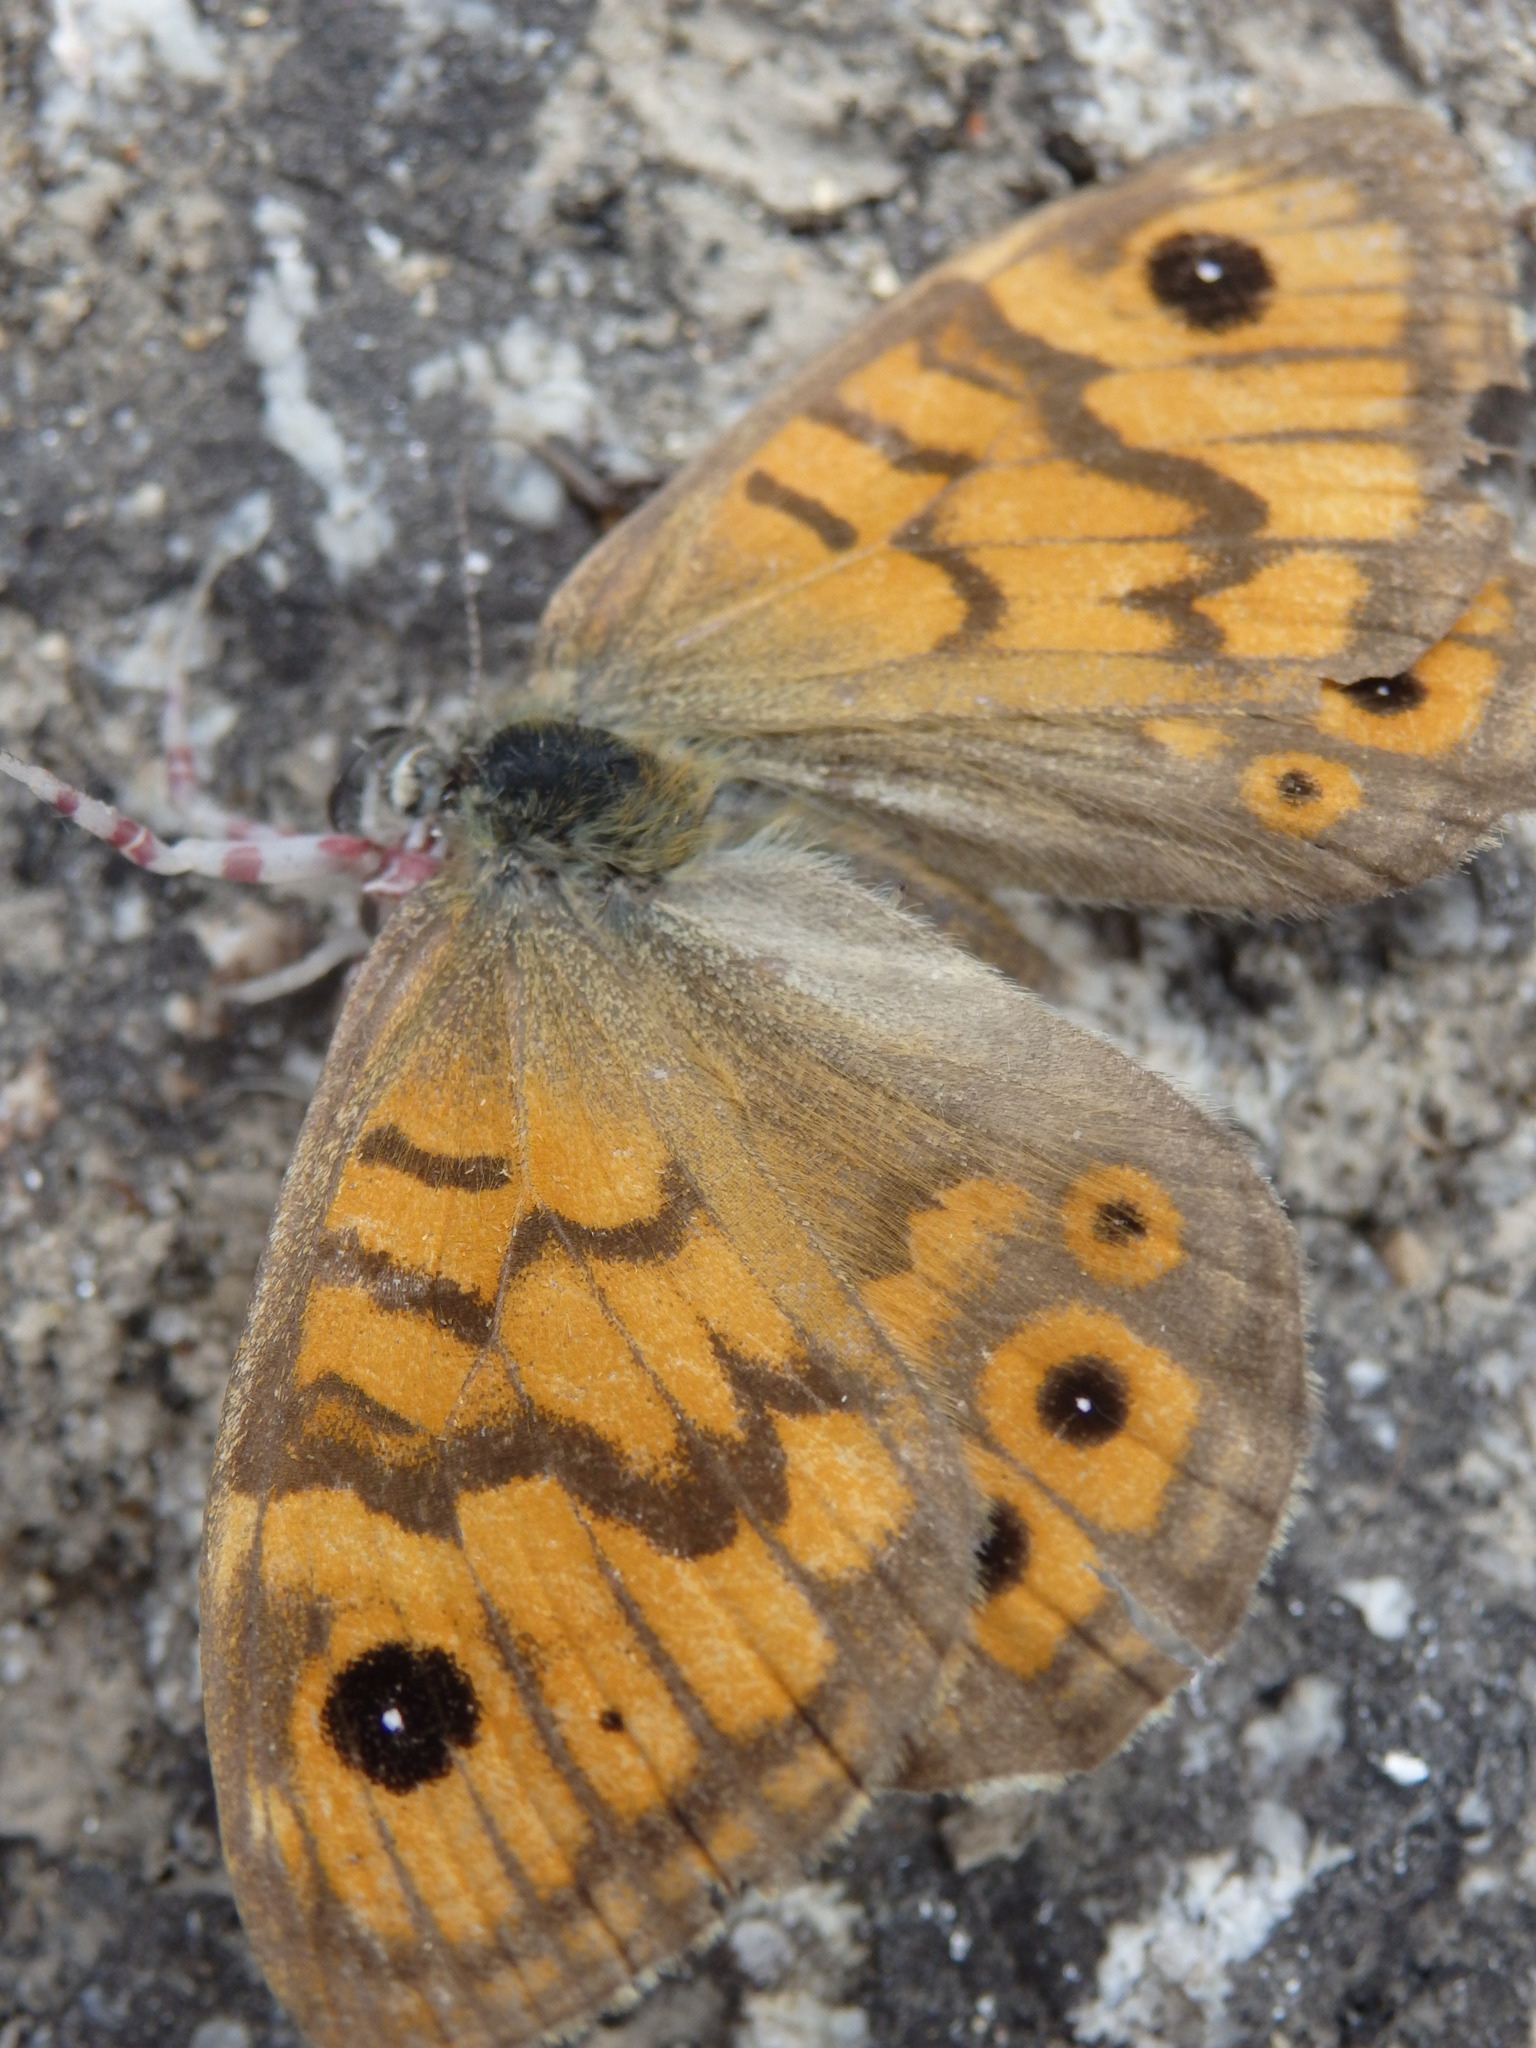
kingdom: Animalia
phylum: Arthropoda
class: Insecta
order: Lepidoptera
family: Nymphalidae
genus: Pararge
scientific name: Pararge Lasiommata megera
